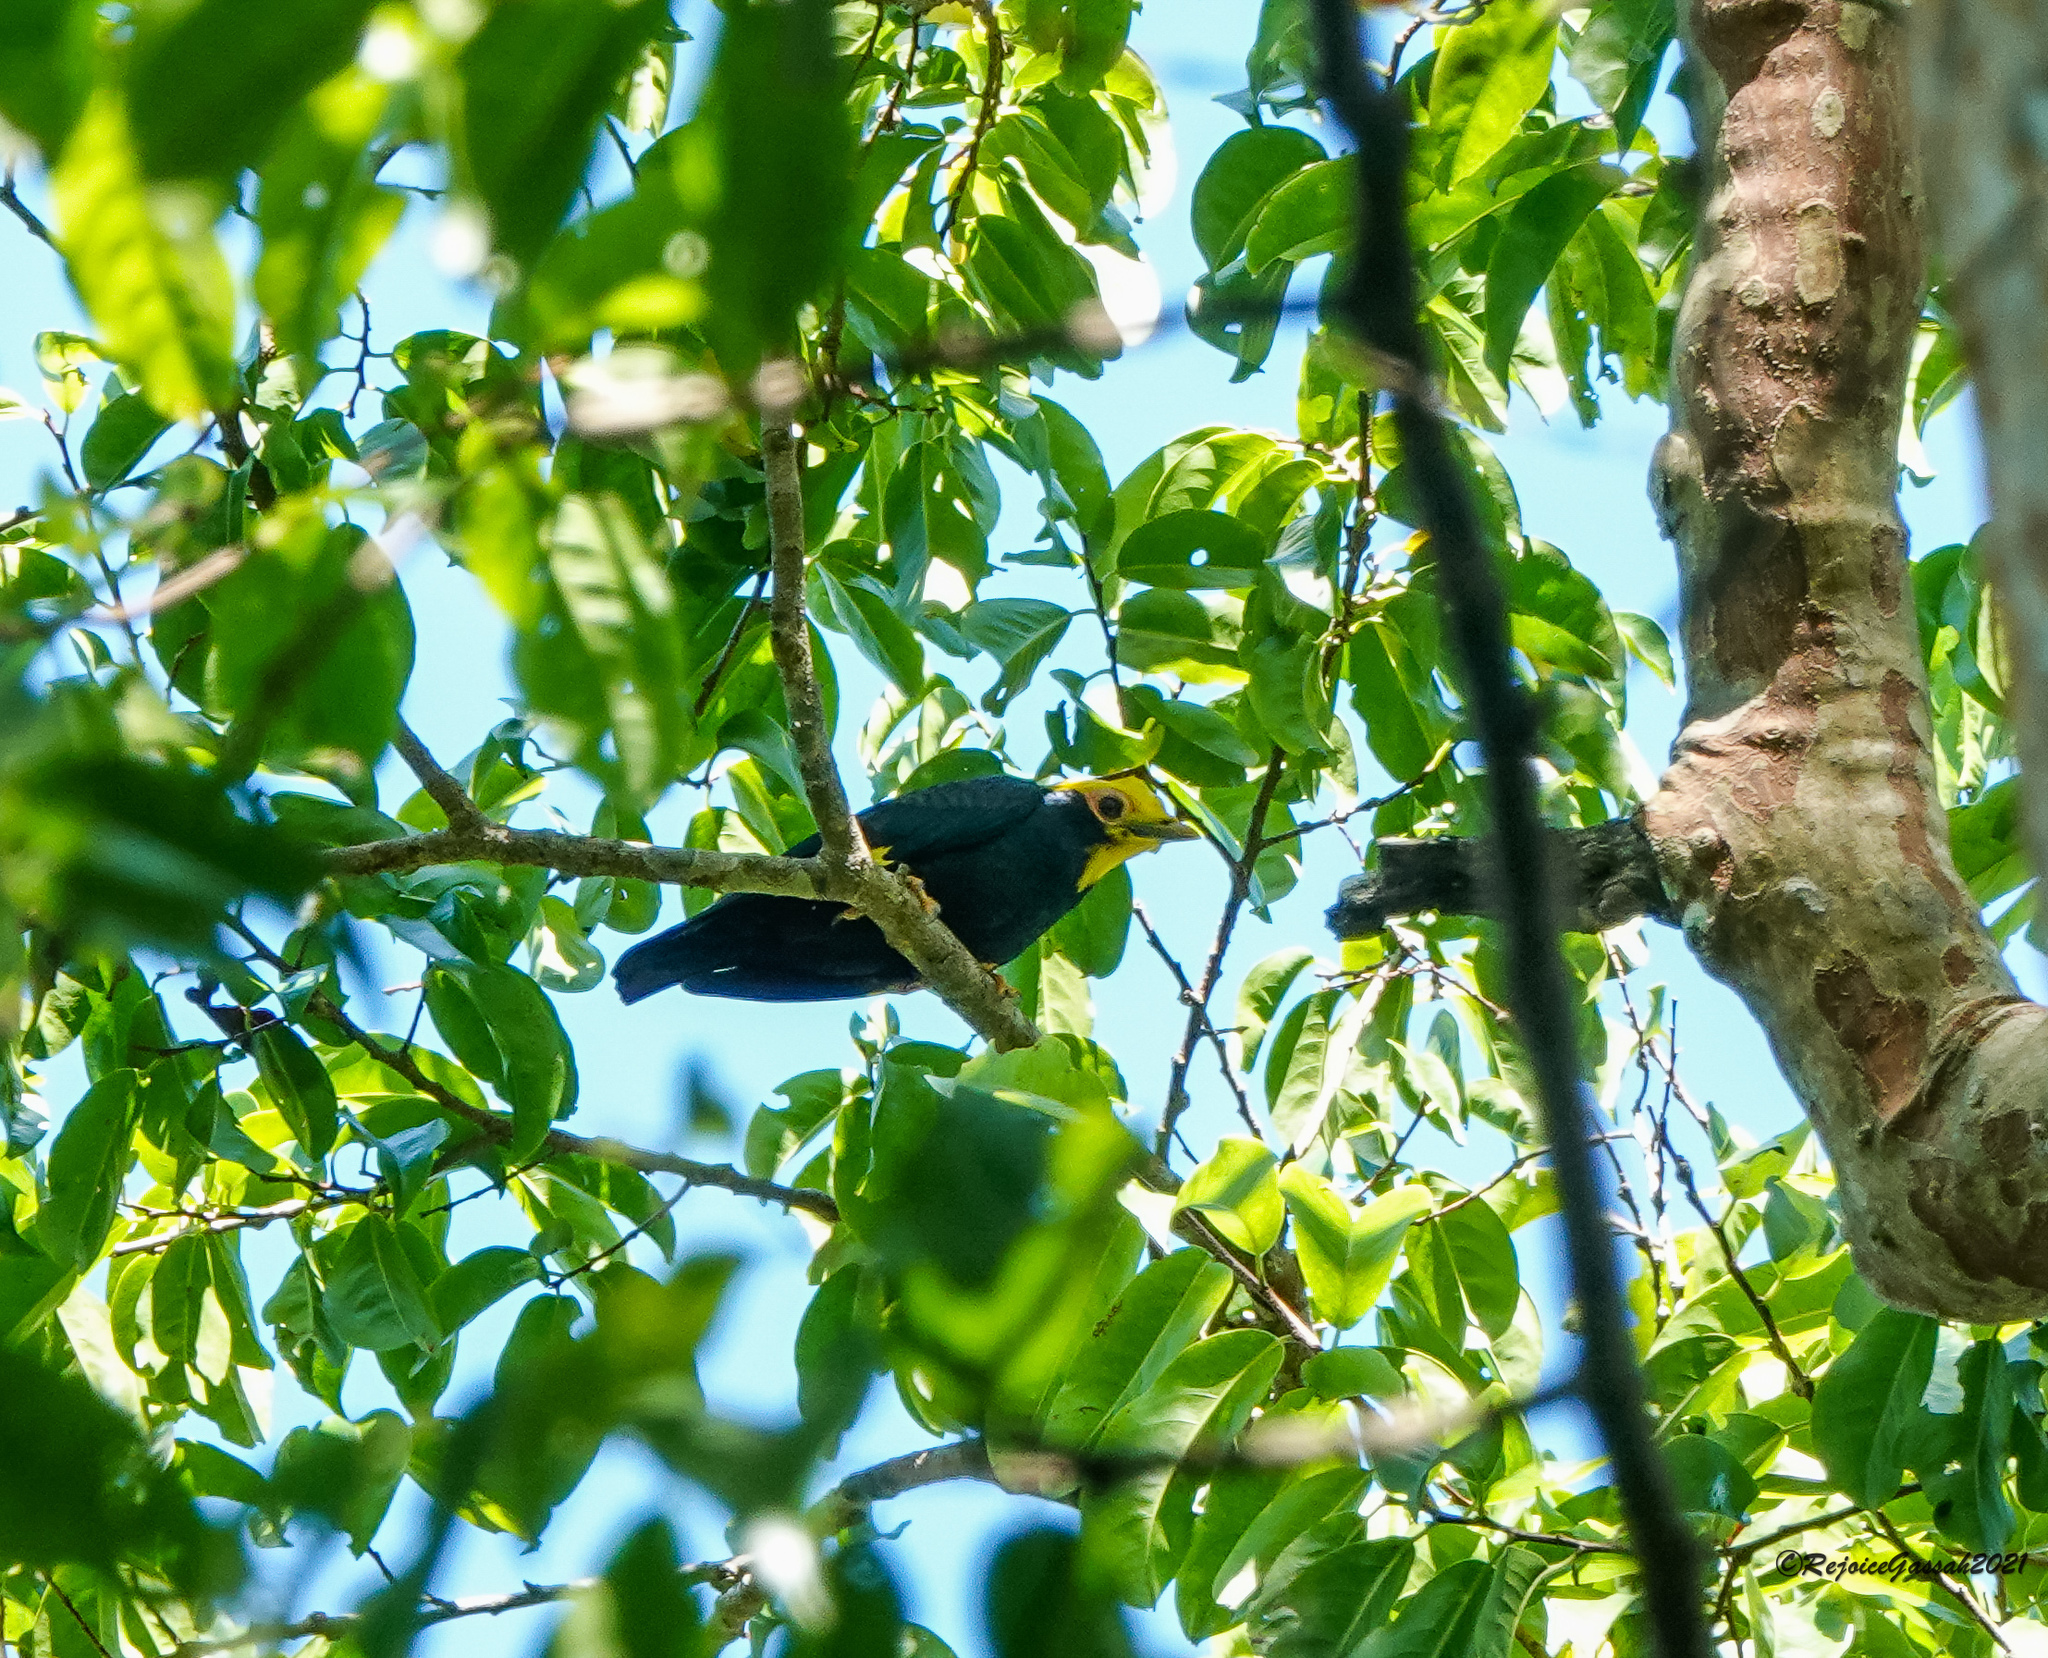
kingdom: Animalia
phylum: Chordata
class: Aves
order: Passeriformes
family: Sturnidae
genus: Ampeliceps
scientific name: Ampeliceps coronatus
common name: Golden-crested myna
